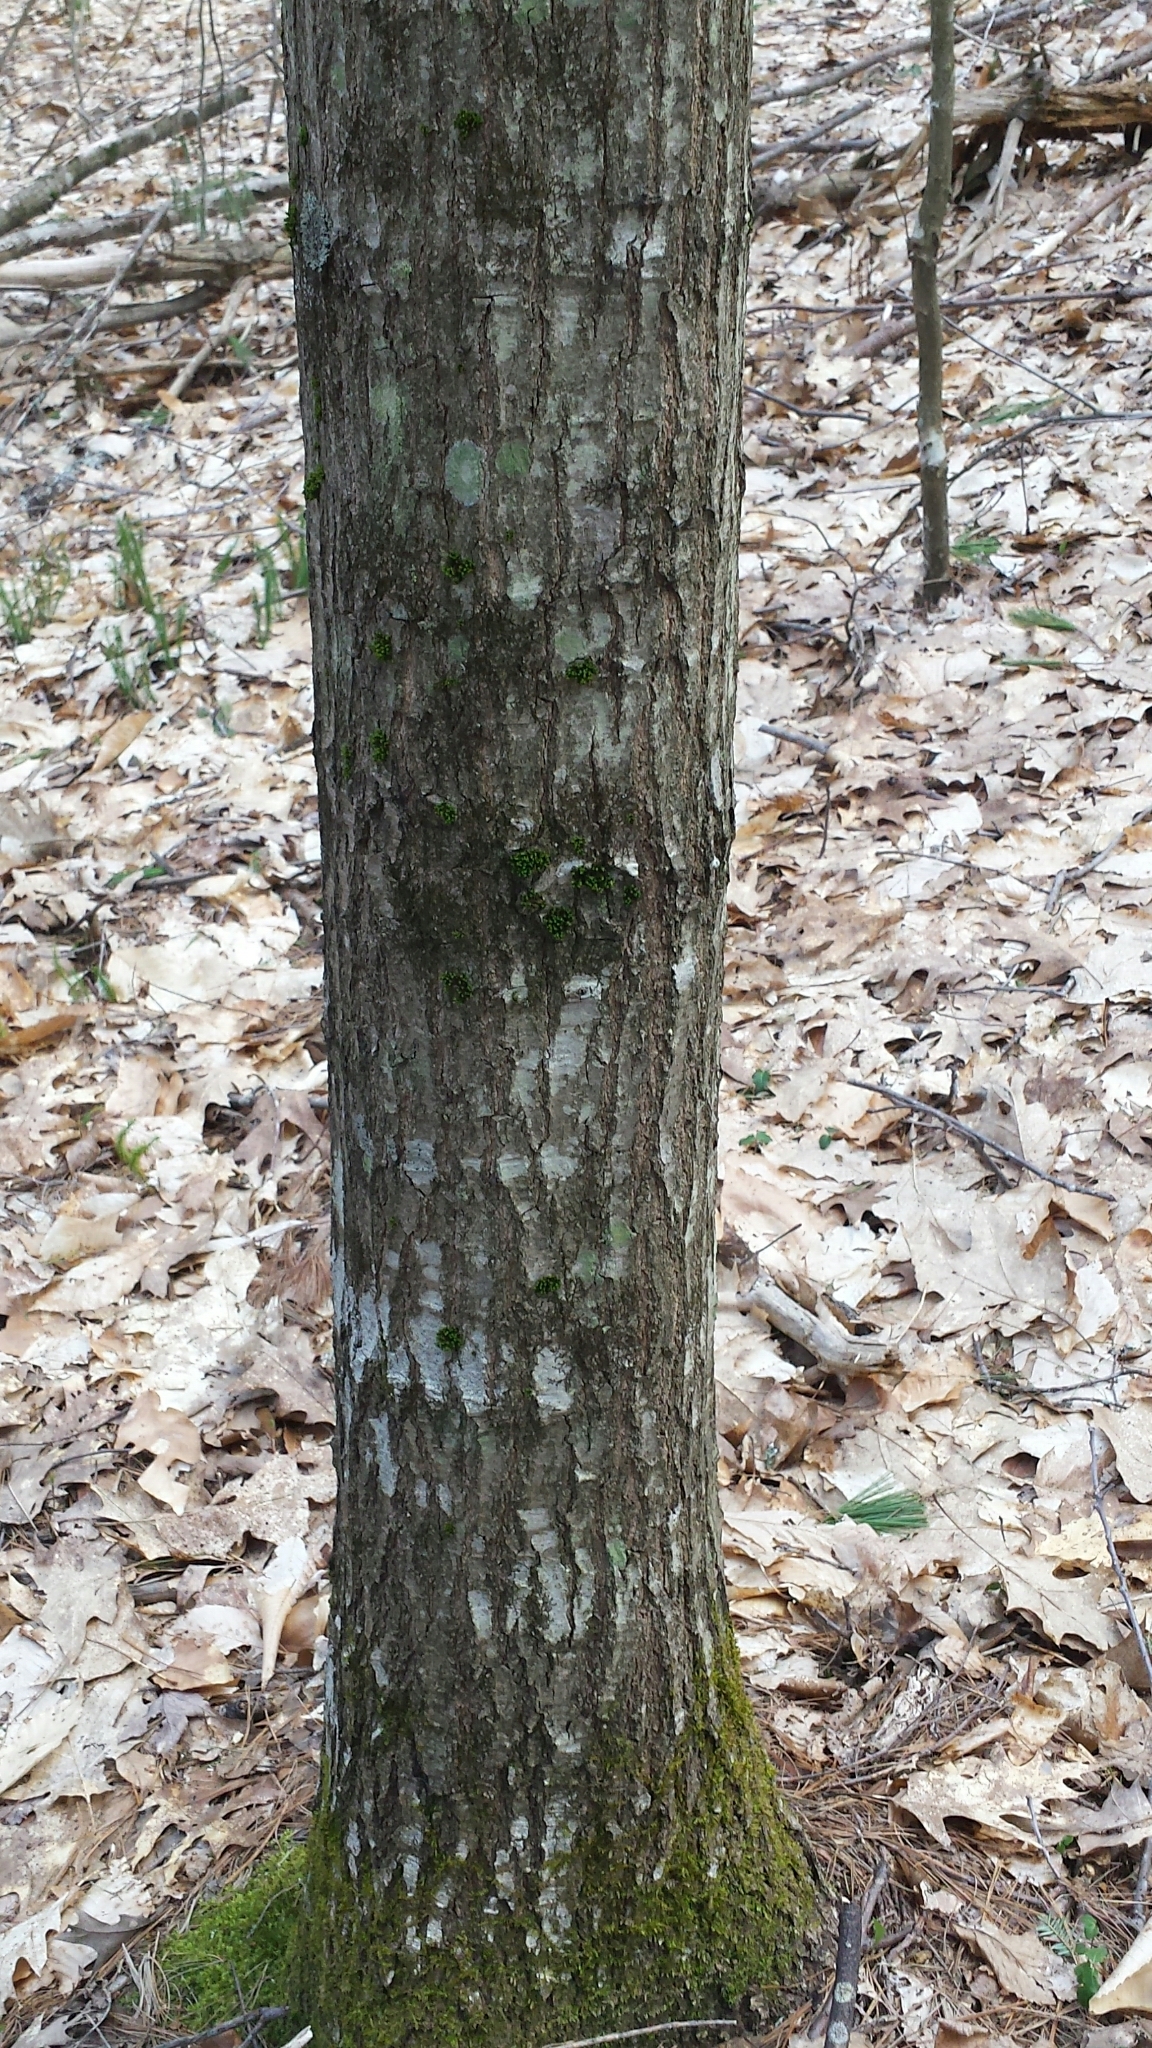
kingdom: Plantae
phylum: Tracheophyta
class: Magnoliopsida
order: Fagales
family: Fagaceae
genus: Quercus
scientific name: Quercus rubra
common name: Red oak
